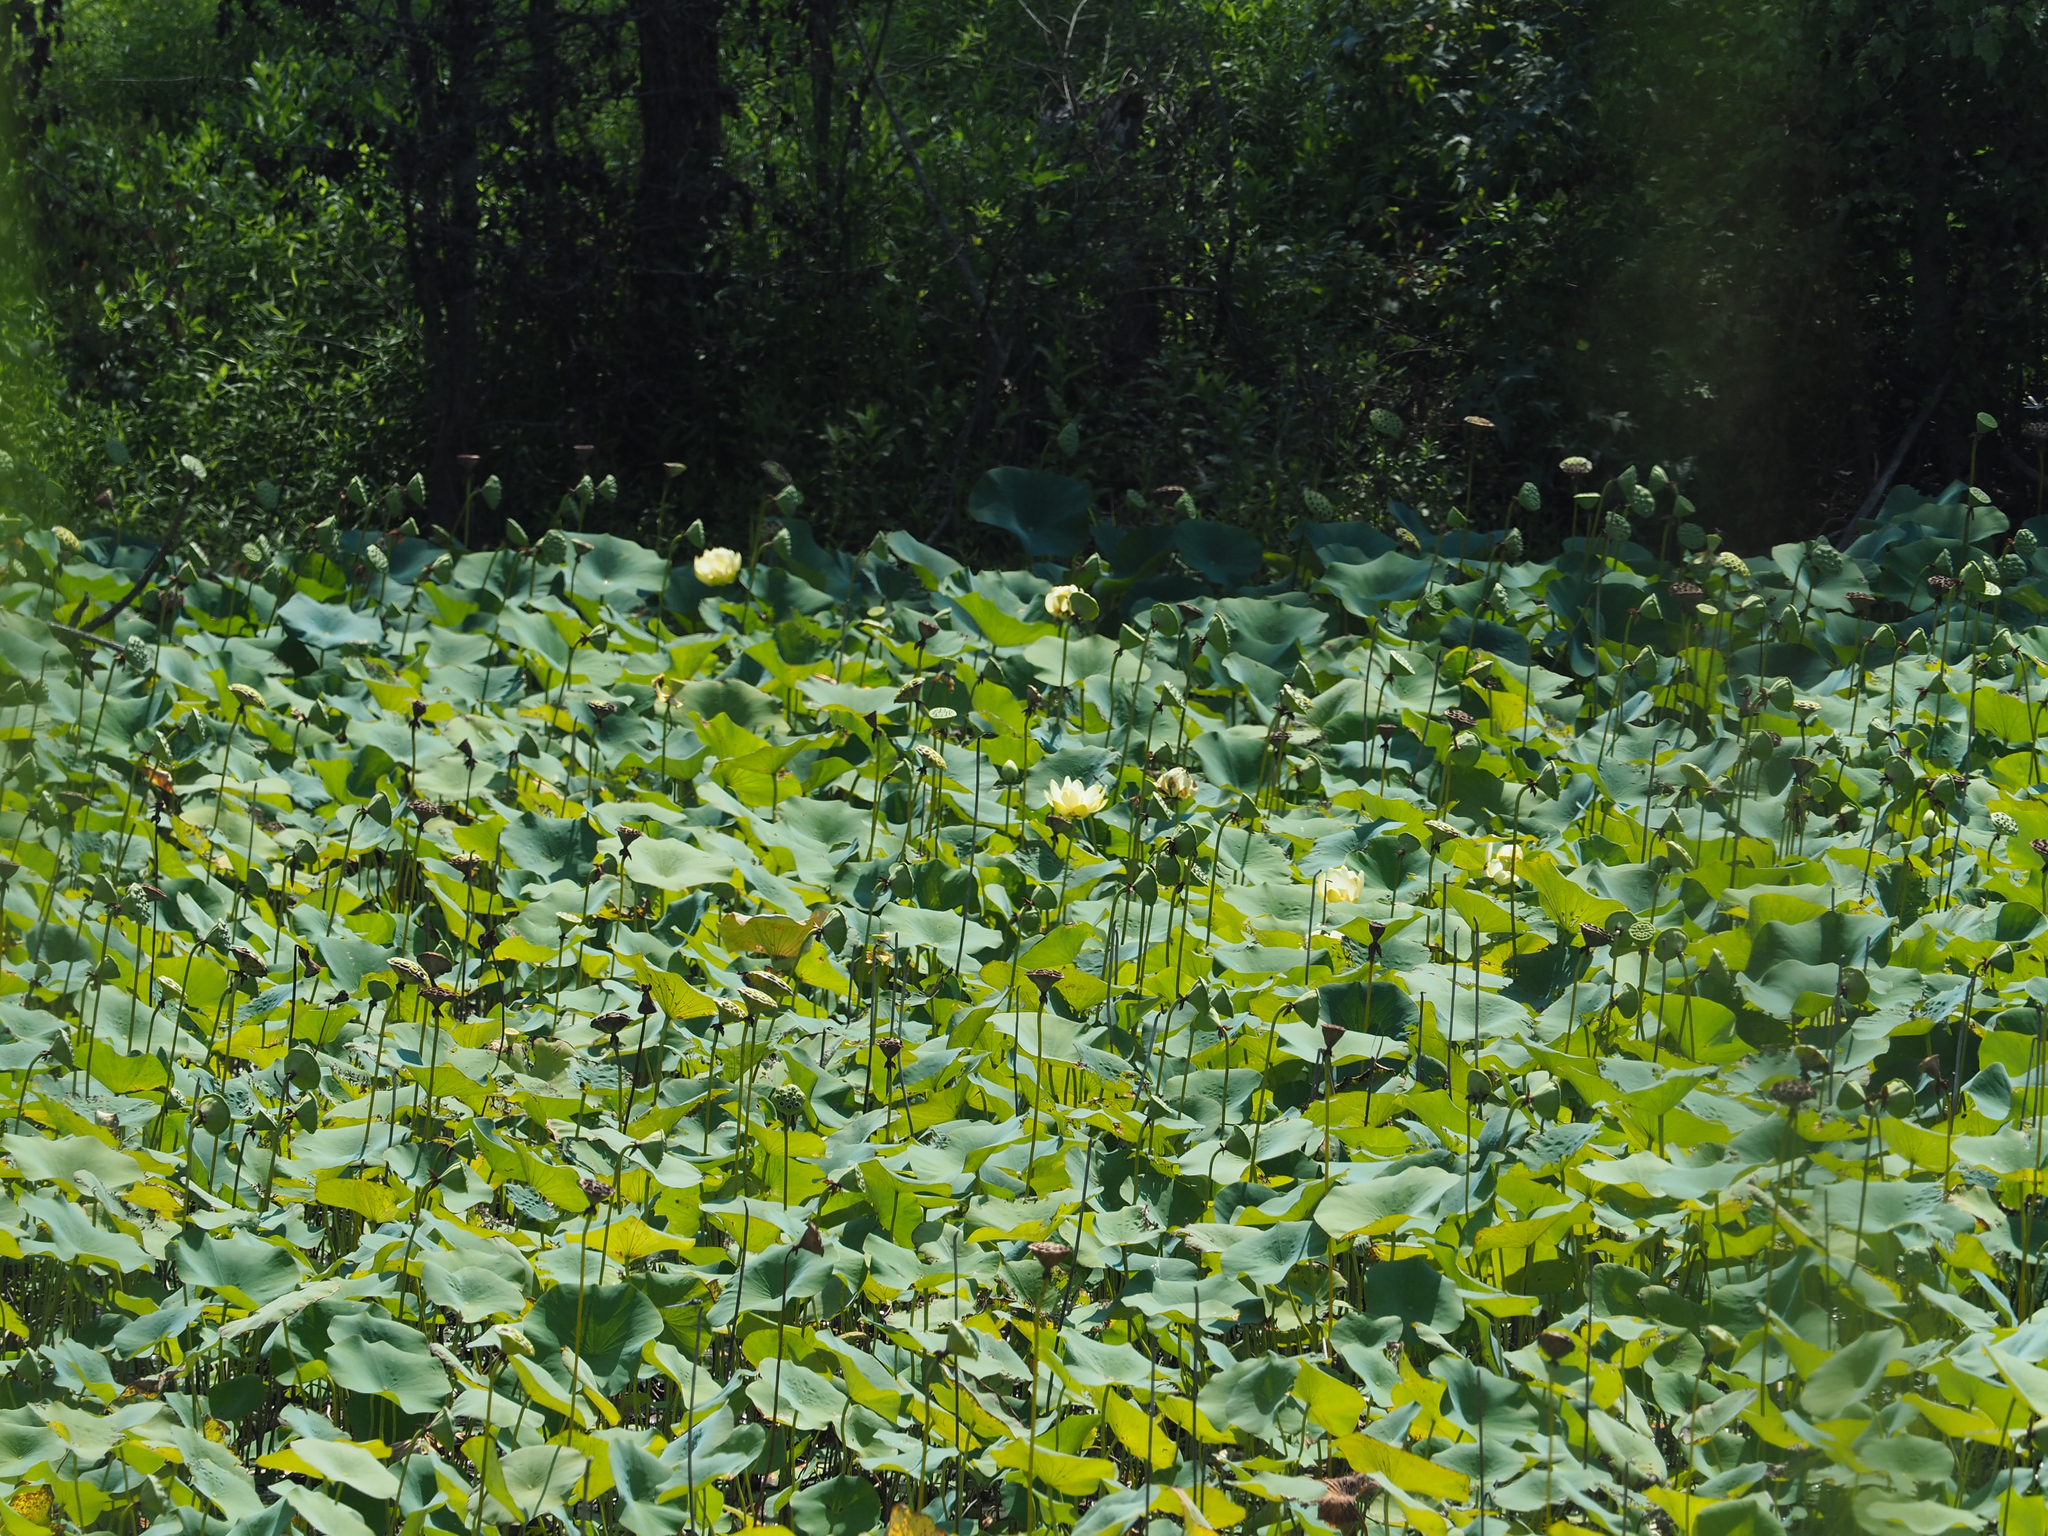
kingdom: Plantae
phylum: Tracheophyta
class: Magnoliopsida
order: Proteales
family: Nelumbonaceae
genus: Nelumbo
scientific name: Nelumbo lutea
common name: American lotus
